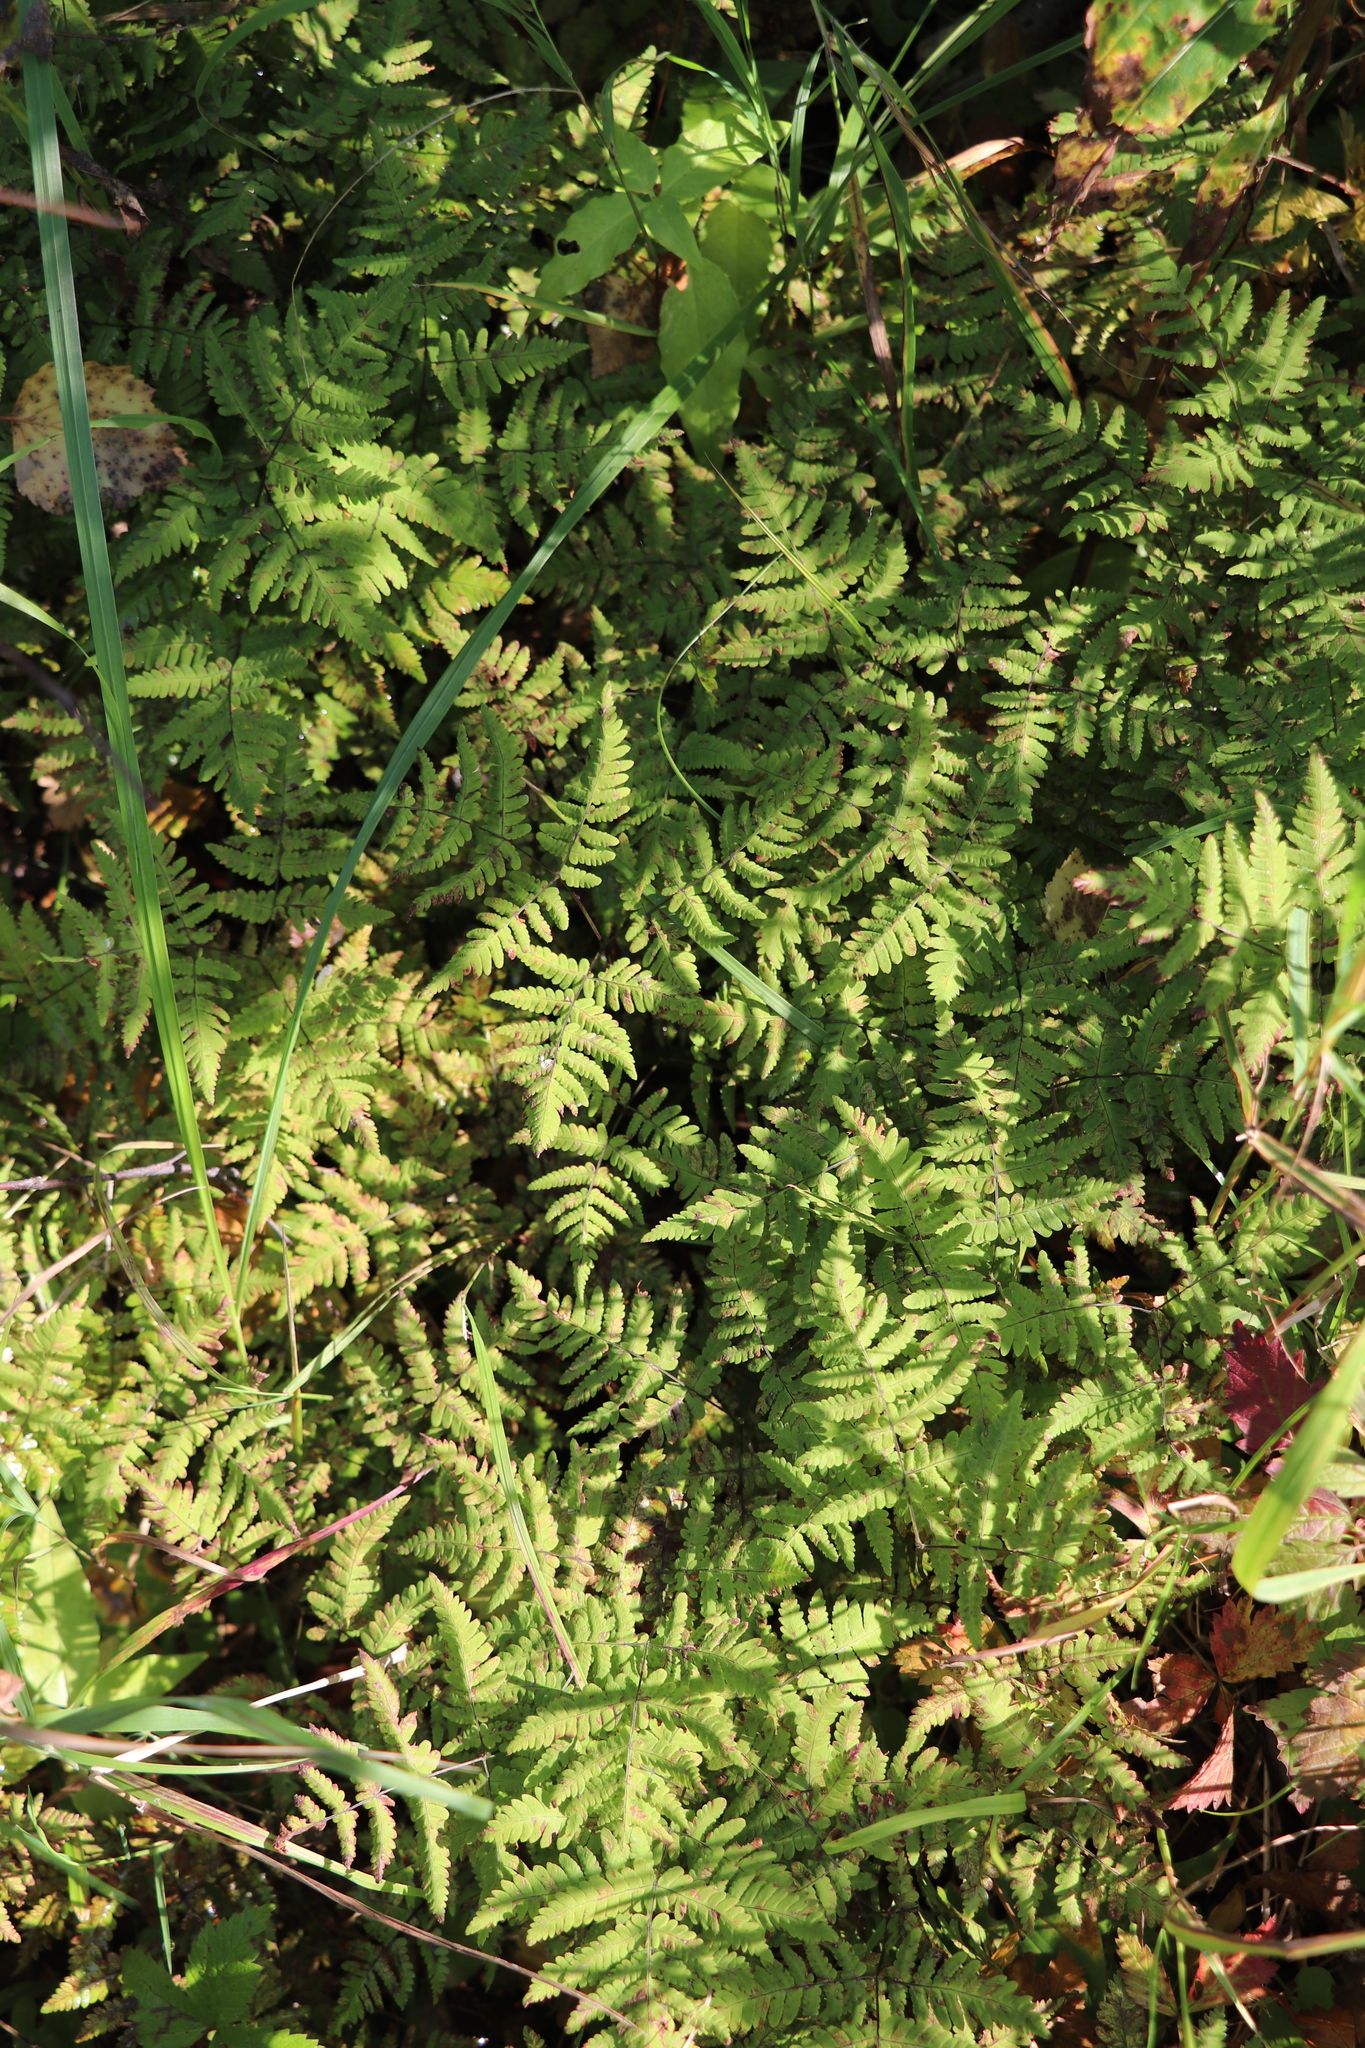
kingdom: Plantae
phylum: Tracheophyta
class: Polypodiopsida
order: Polypodiales
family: Thelypteridaceae
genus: Phegopteris
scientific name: Phegopteris connectilis
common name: Beech fern
